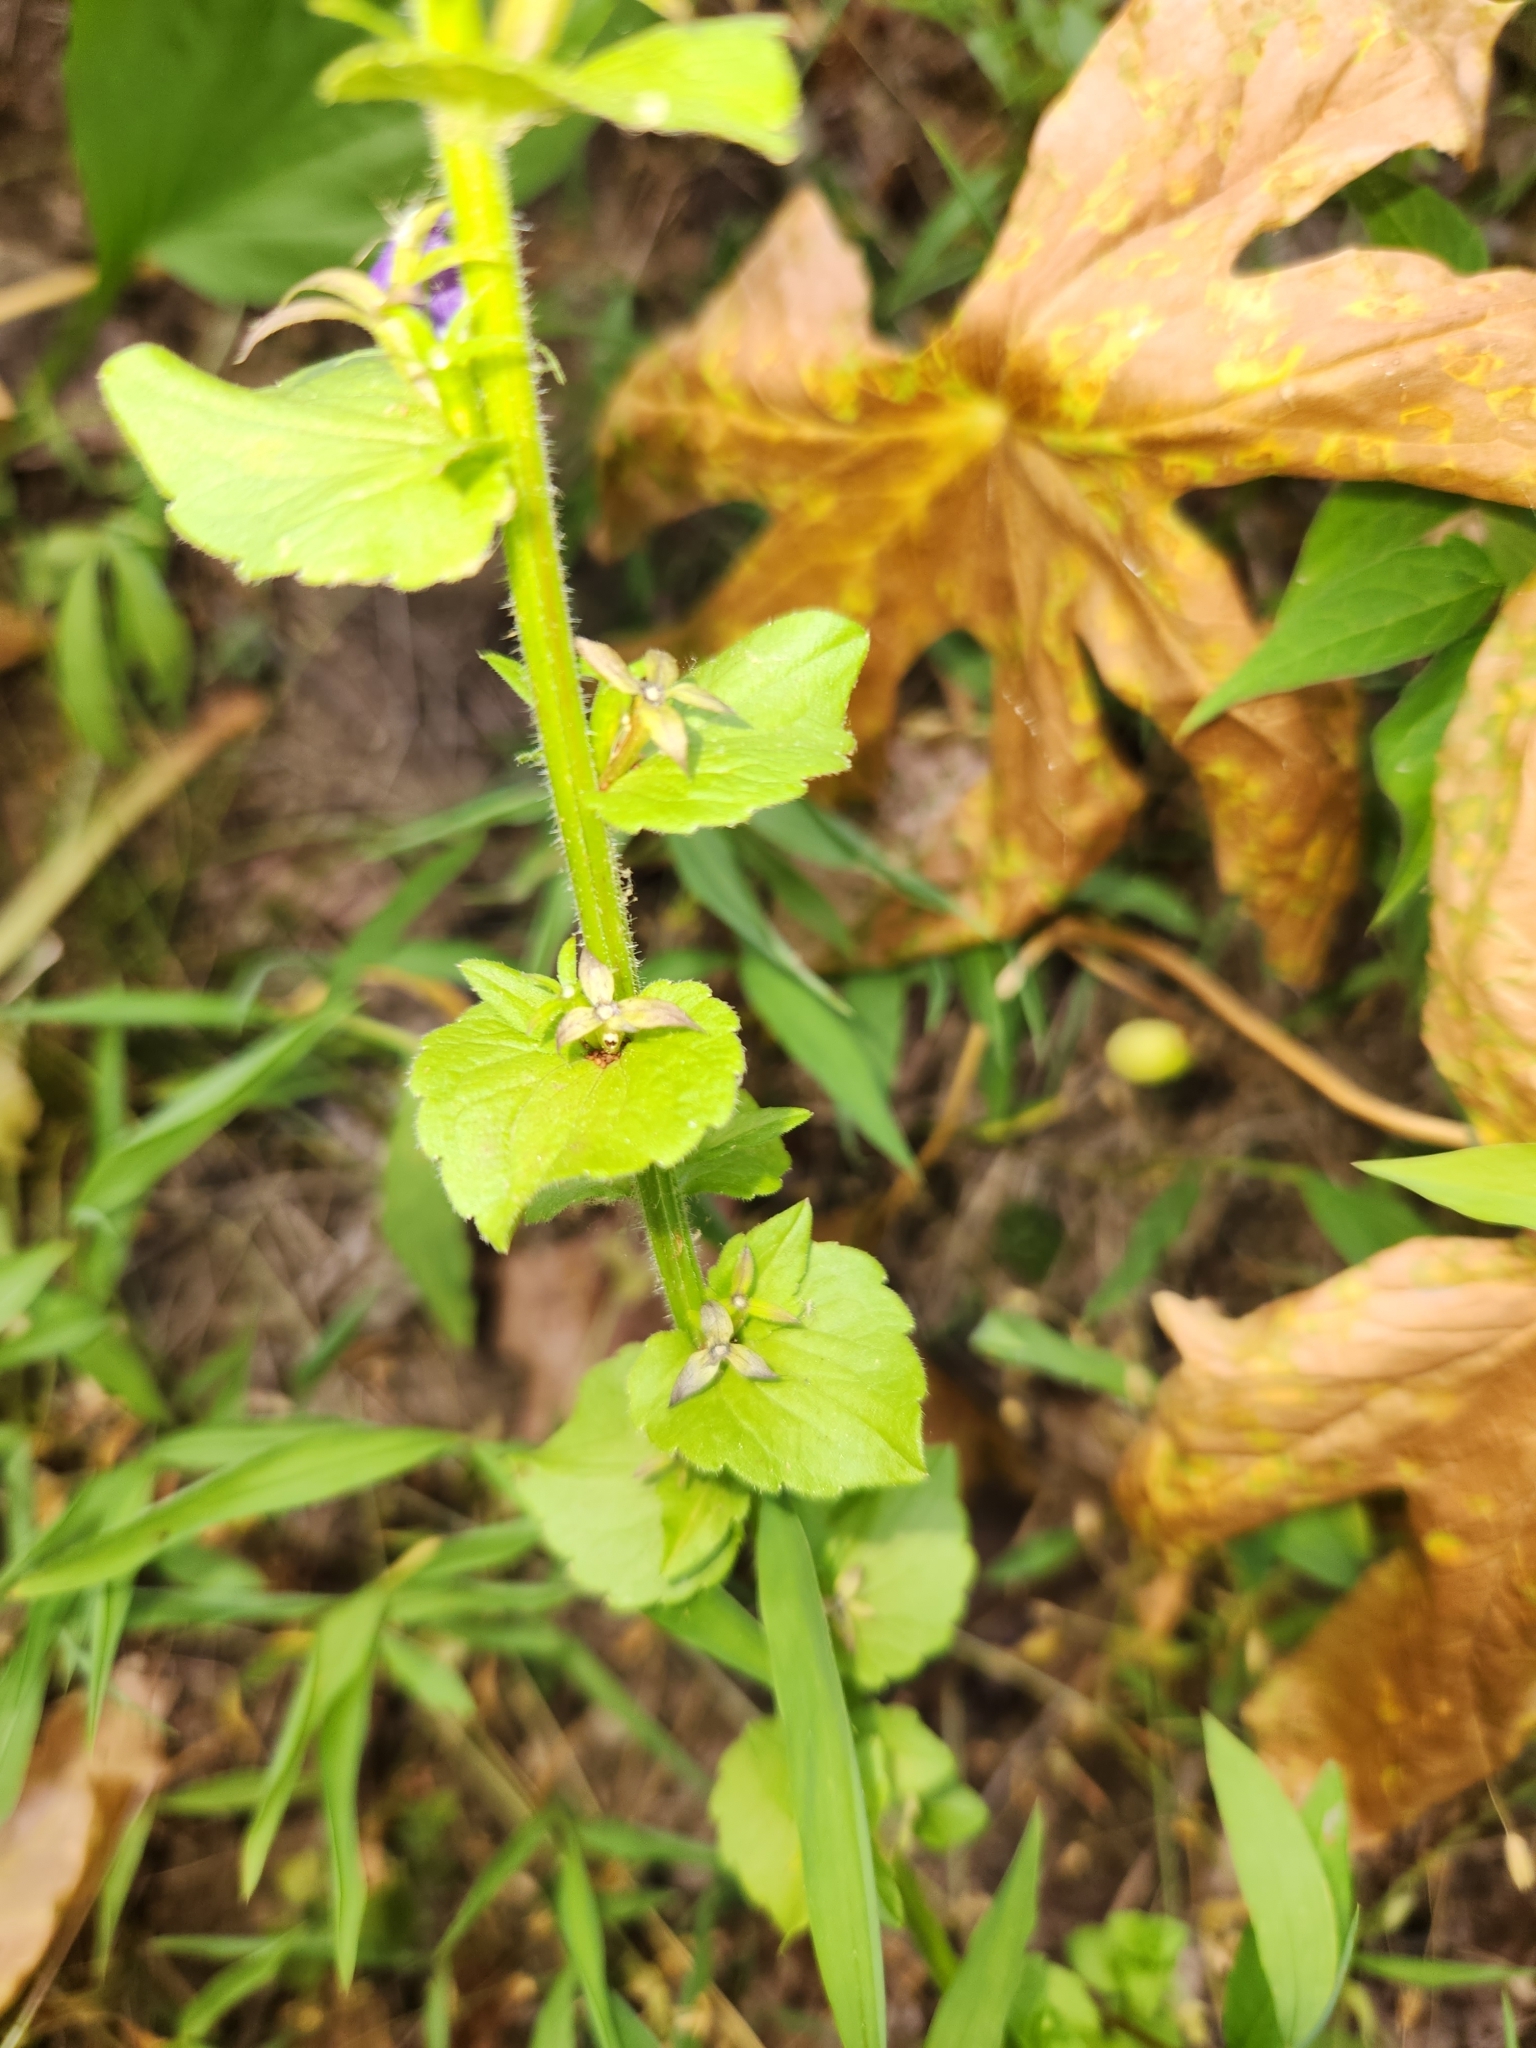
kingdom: Plantae
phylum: Tracheophyta
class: Magnoliopsida
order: Asterales
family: Campanulaceae
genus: Triodanis
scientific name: Triodanis perfoliata
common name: Clasping venus' looking-glass
